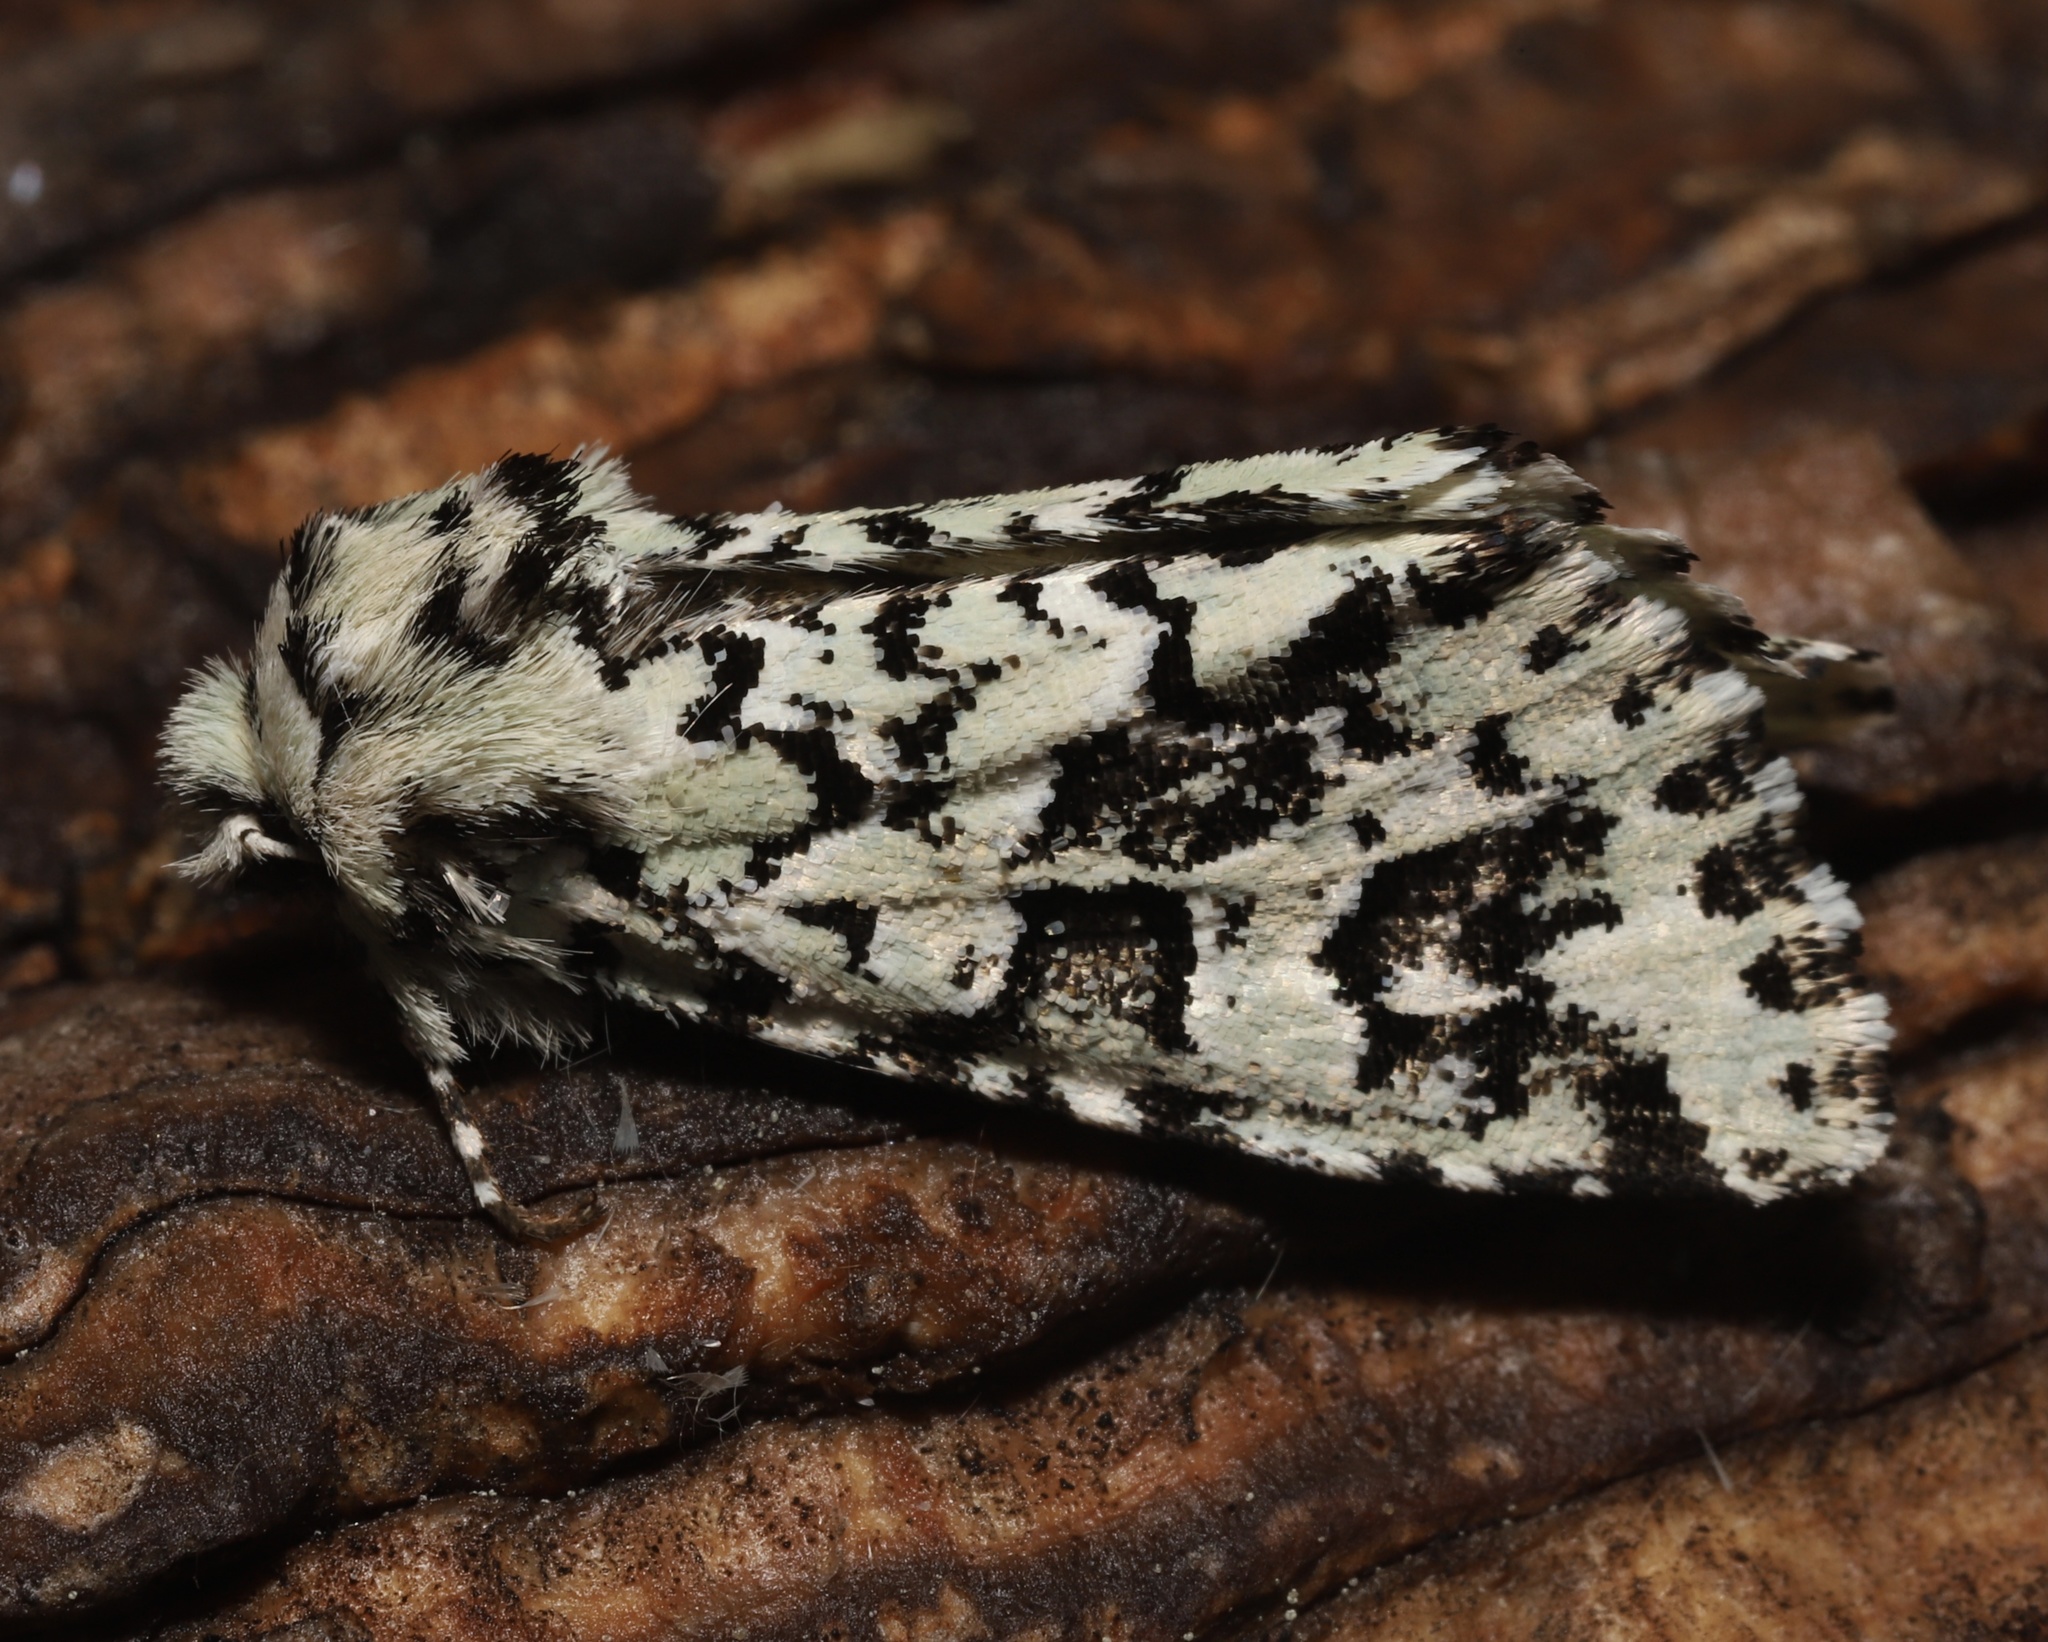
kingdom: Animalia
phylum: Arthropoda
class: Insecta
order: Lepidoptera
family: Noctuidae
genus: Feralia
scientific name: Feralia comstocki
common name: Comstock's sallow
